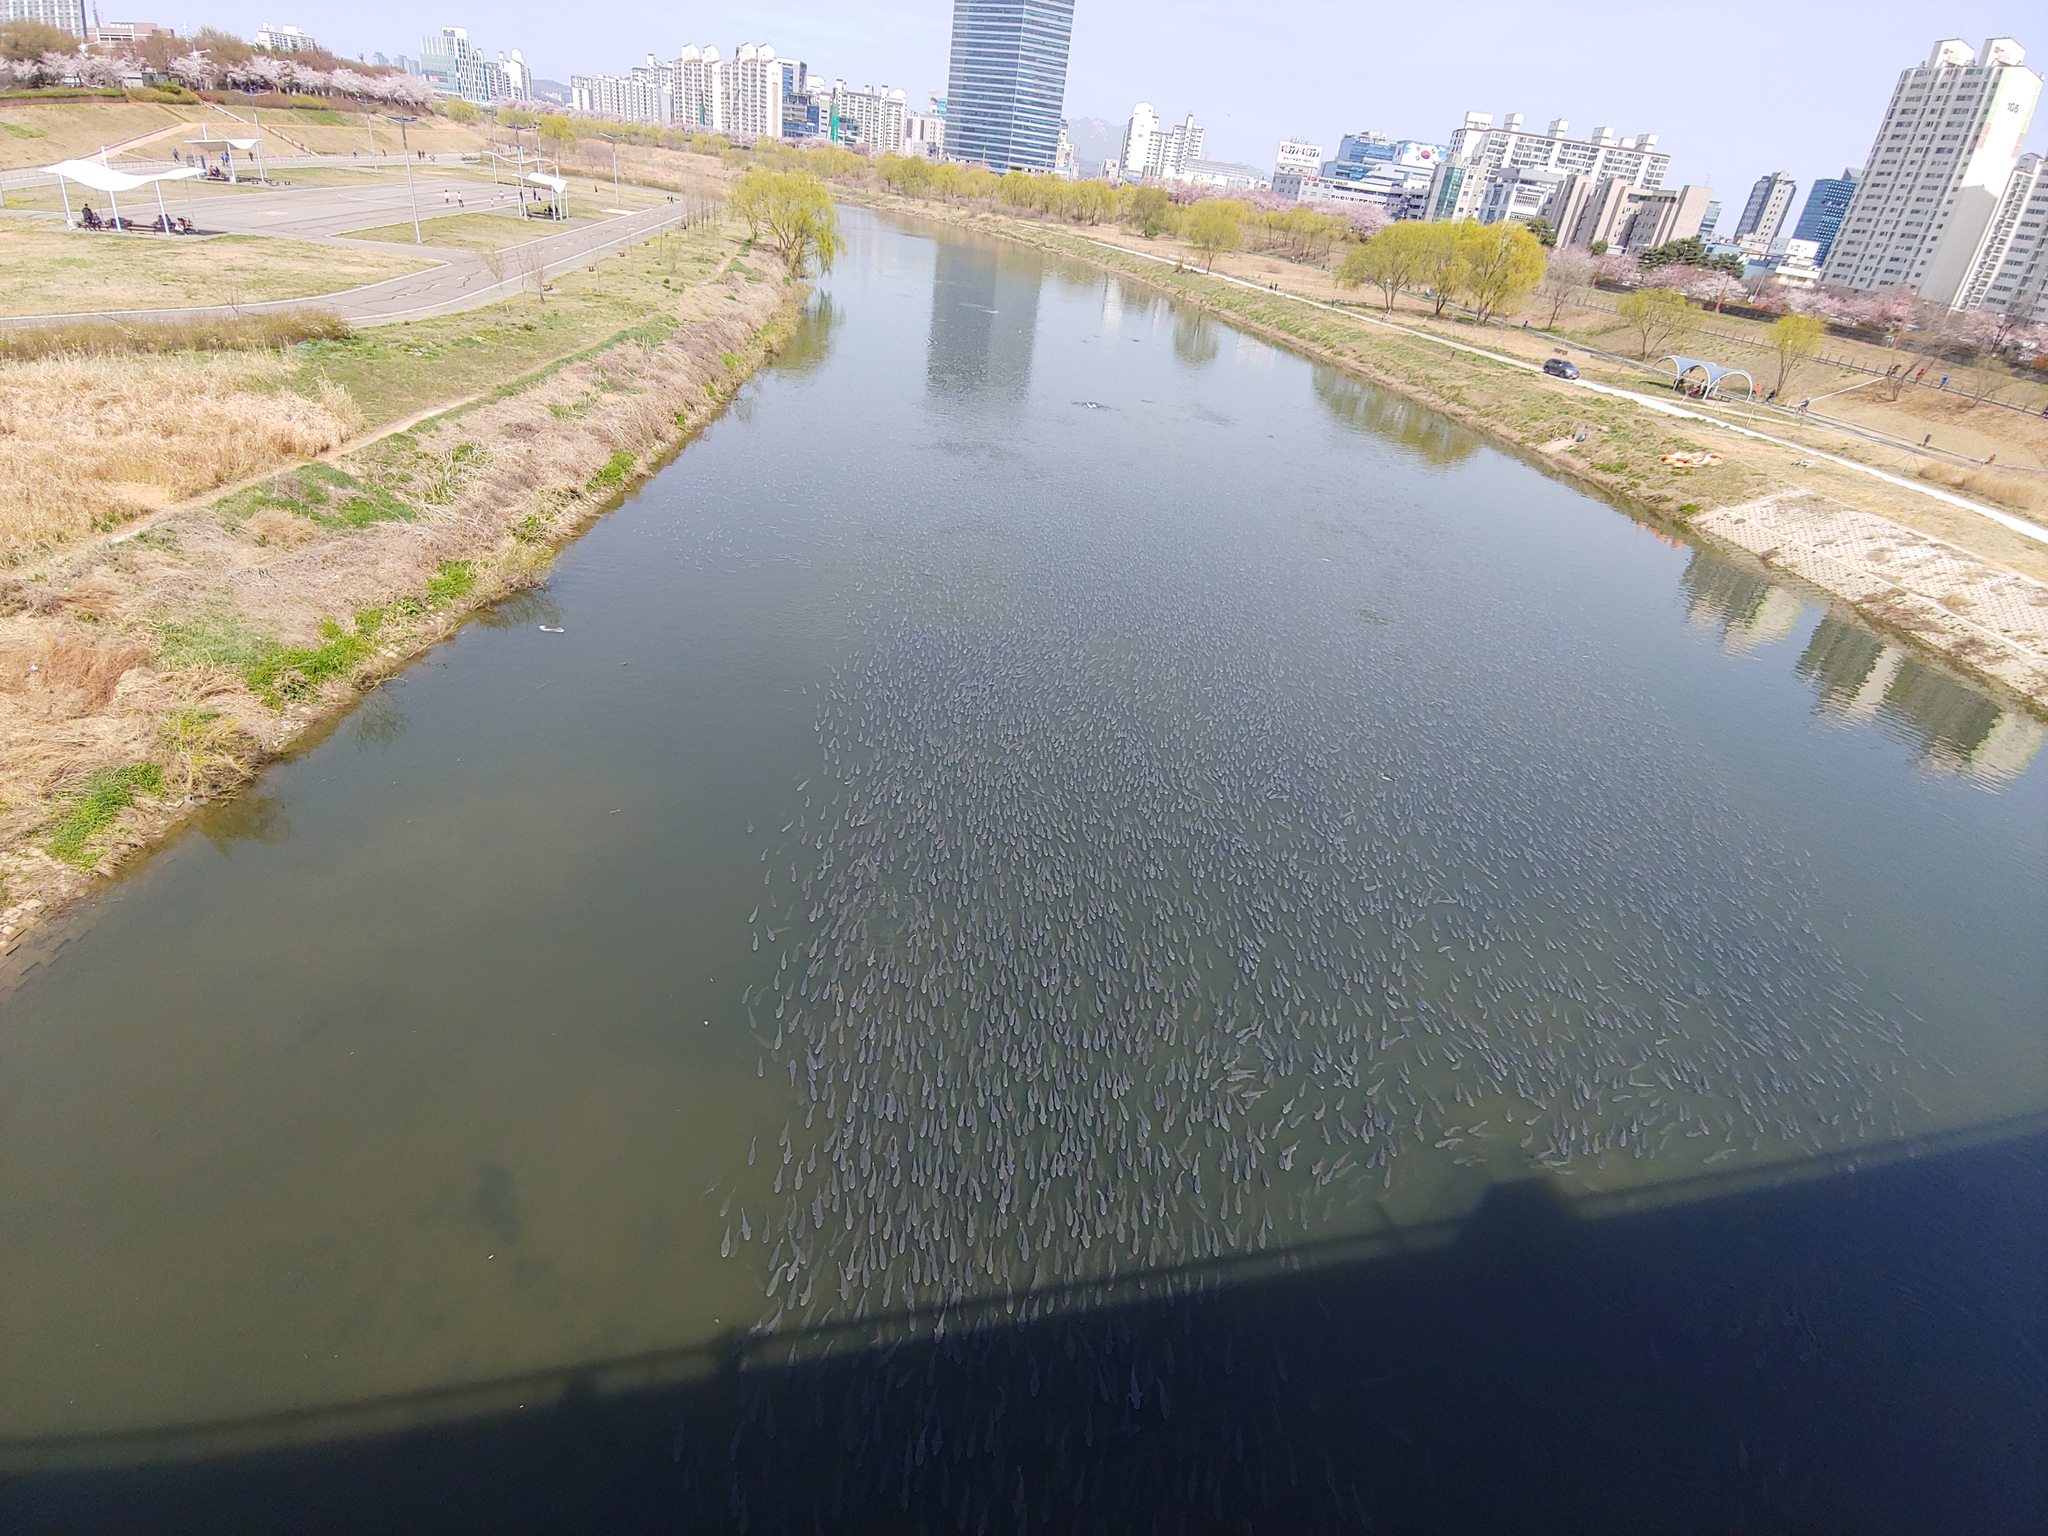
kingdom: Animalia
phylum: Chordata
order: Mugiliformes
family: Mugilidae
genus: Mugil
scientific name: Mugil cephalus
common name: Grey mullet
